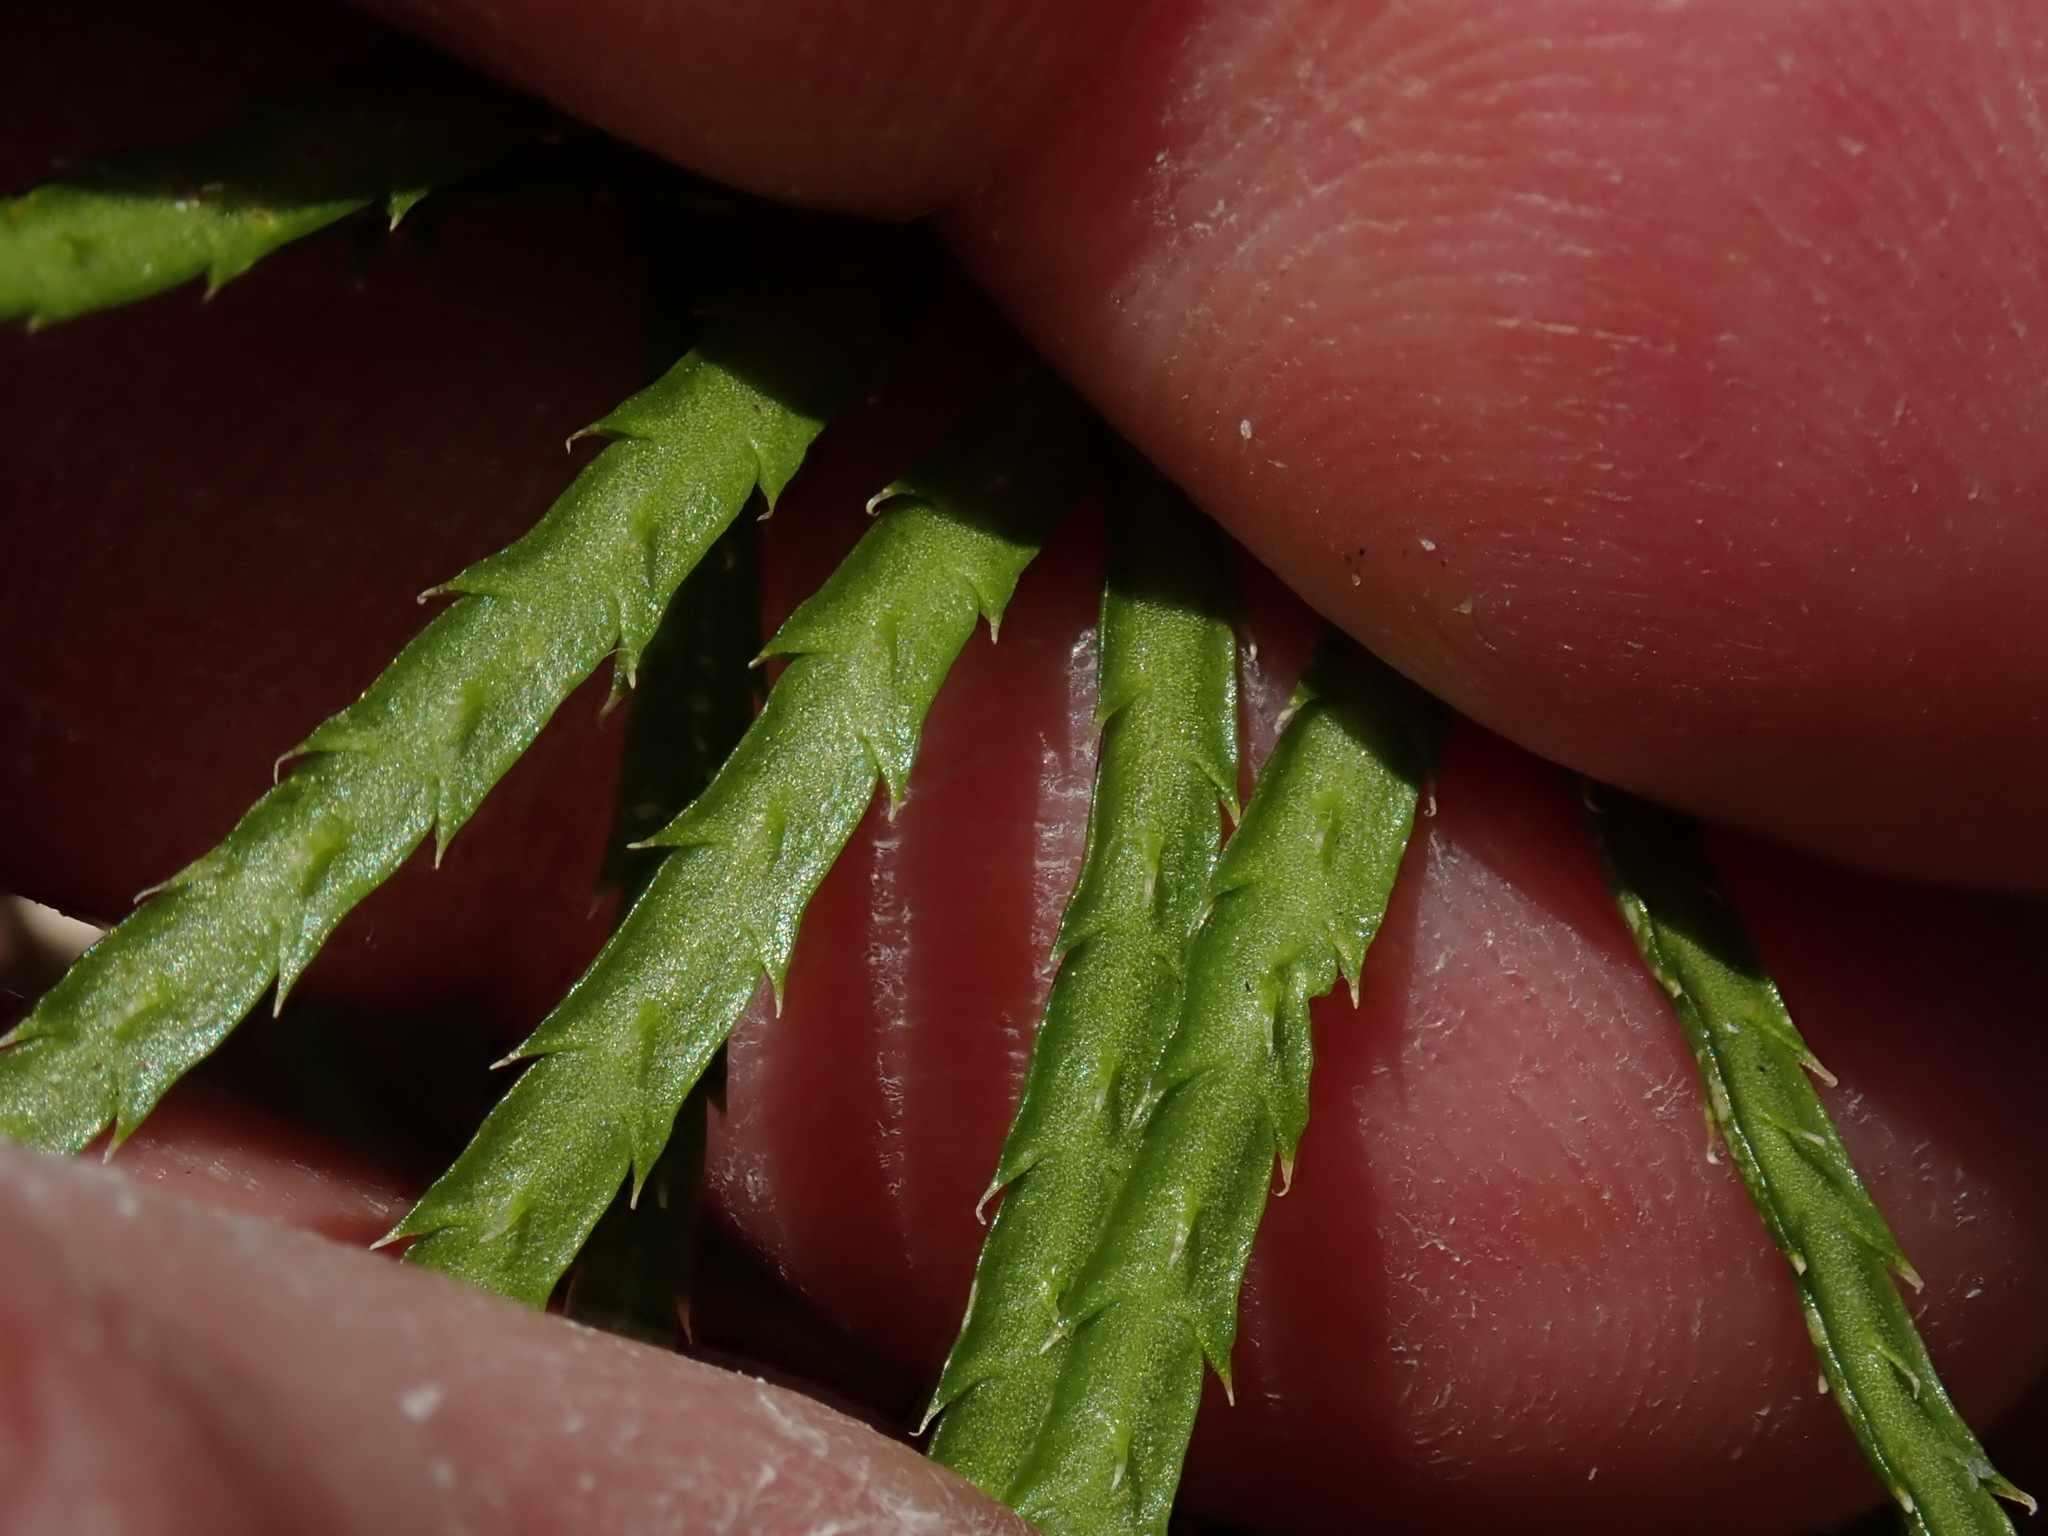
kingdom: Plantae
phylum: Tracheophyta
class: Lycopodiopsida
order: Lycopodiales
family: Lycopodiaceae
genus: Diphasiastrum
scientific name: Diphasiastrum digitatum
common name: Southern running-pine
